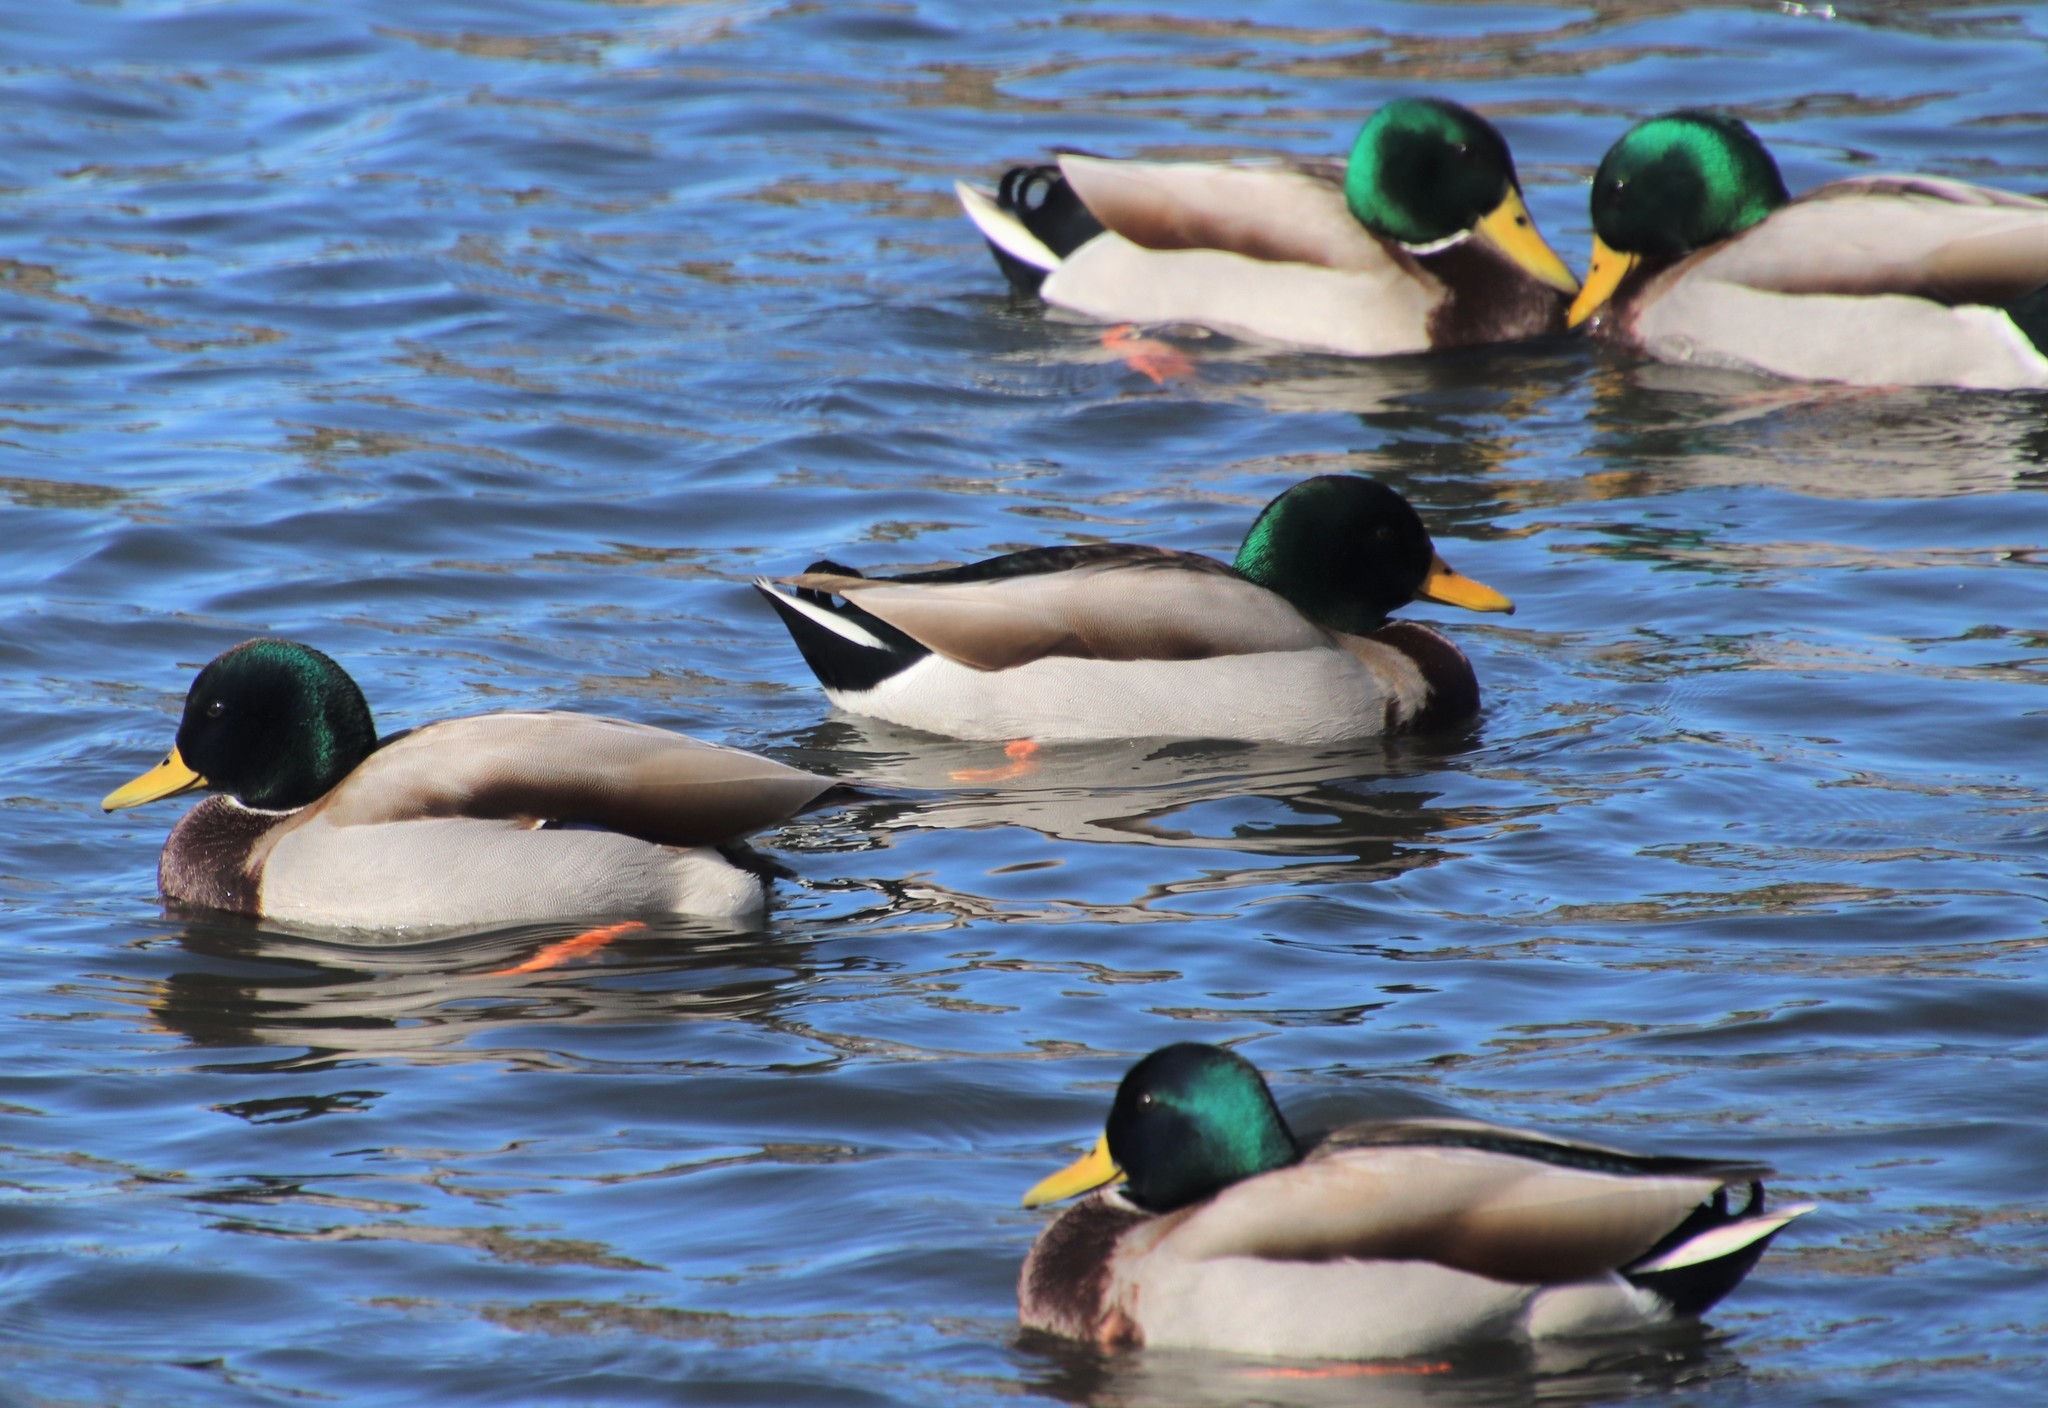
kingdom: Animalia
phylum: Chordata
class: Aves
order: Anseriformes
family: Anatidae
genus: Anas
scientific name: Anas platyrhynchos
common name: Mallard
